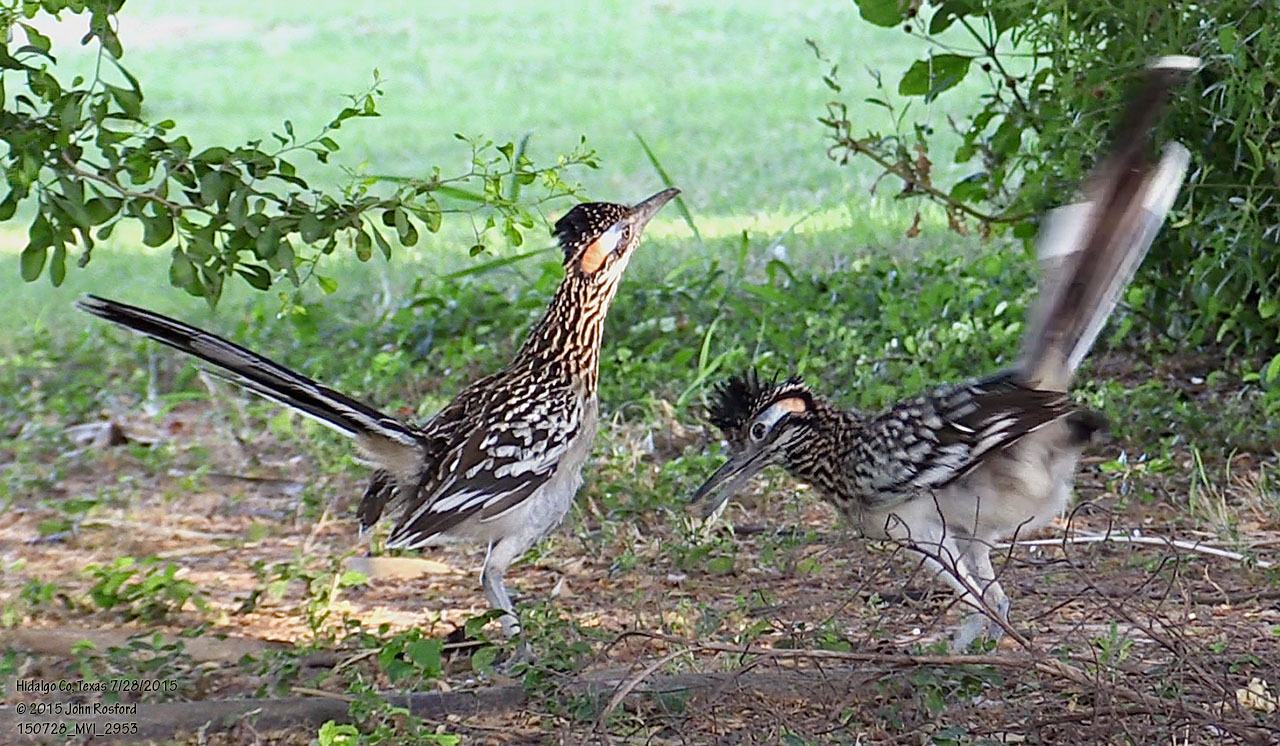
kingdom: Animalia
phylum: Chordata
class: Aves
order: Cuculiformes
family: Cuculidae
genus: Geococcyx
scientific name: Geococcyx californianus
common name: Greater roadrunner
